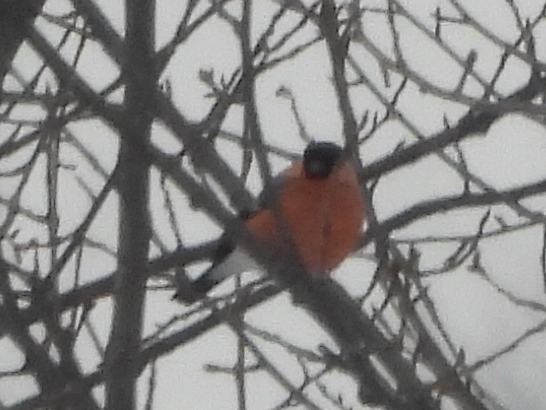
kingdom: Animalia
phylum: Chordata
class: Aves
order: Passeriformes
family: Fringillidae
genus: Pyrrhula
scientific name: Pyrrhula pyrrhula
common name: Eurasian bullfinch
